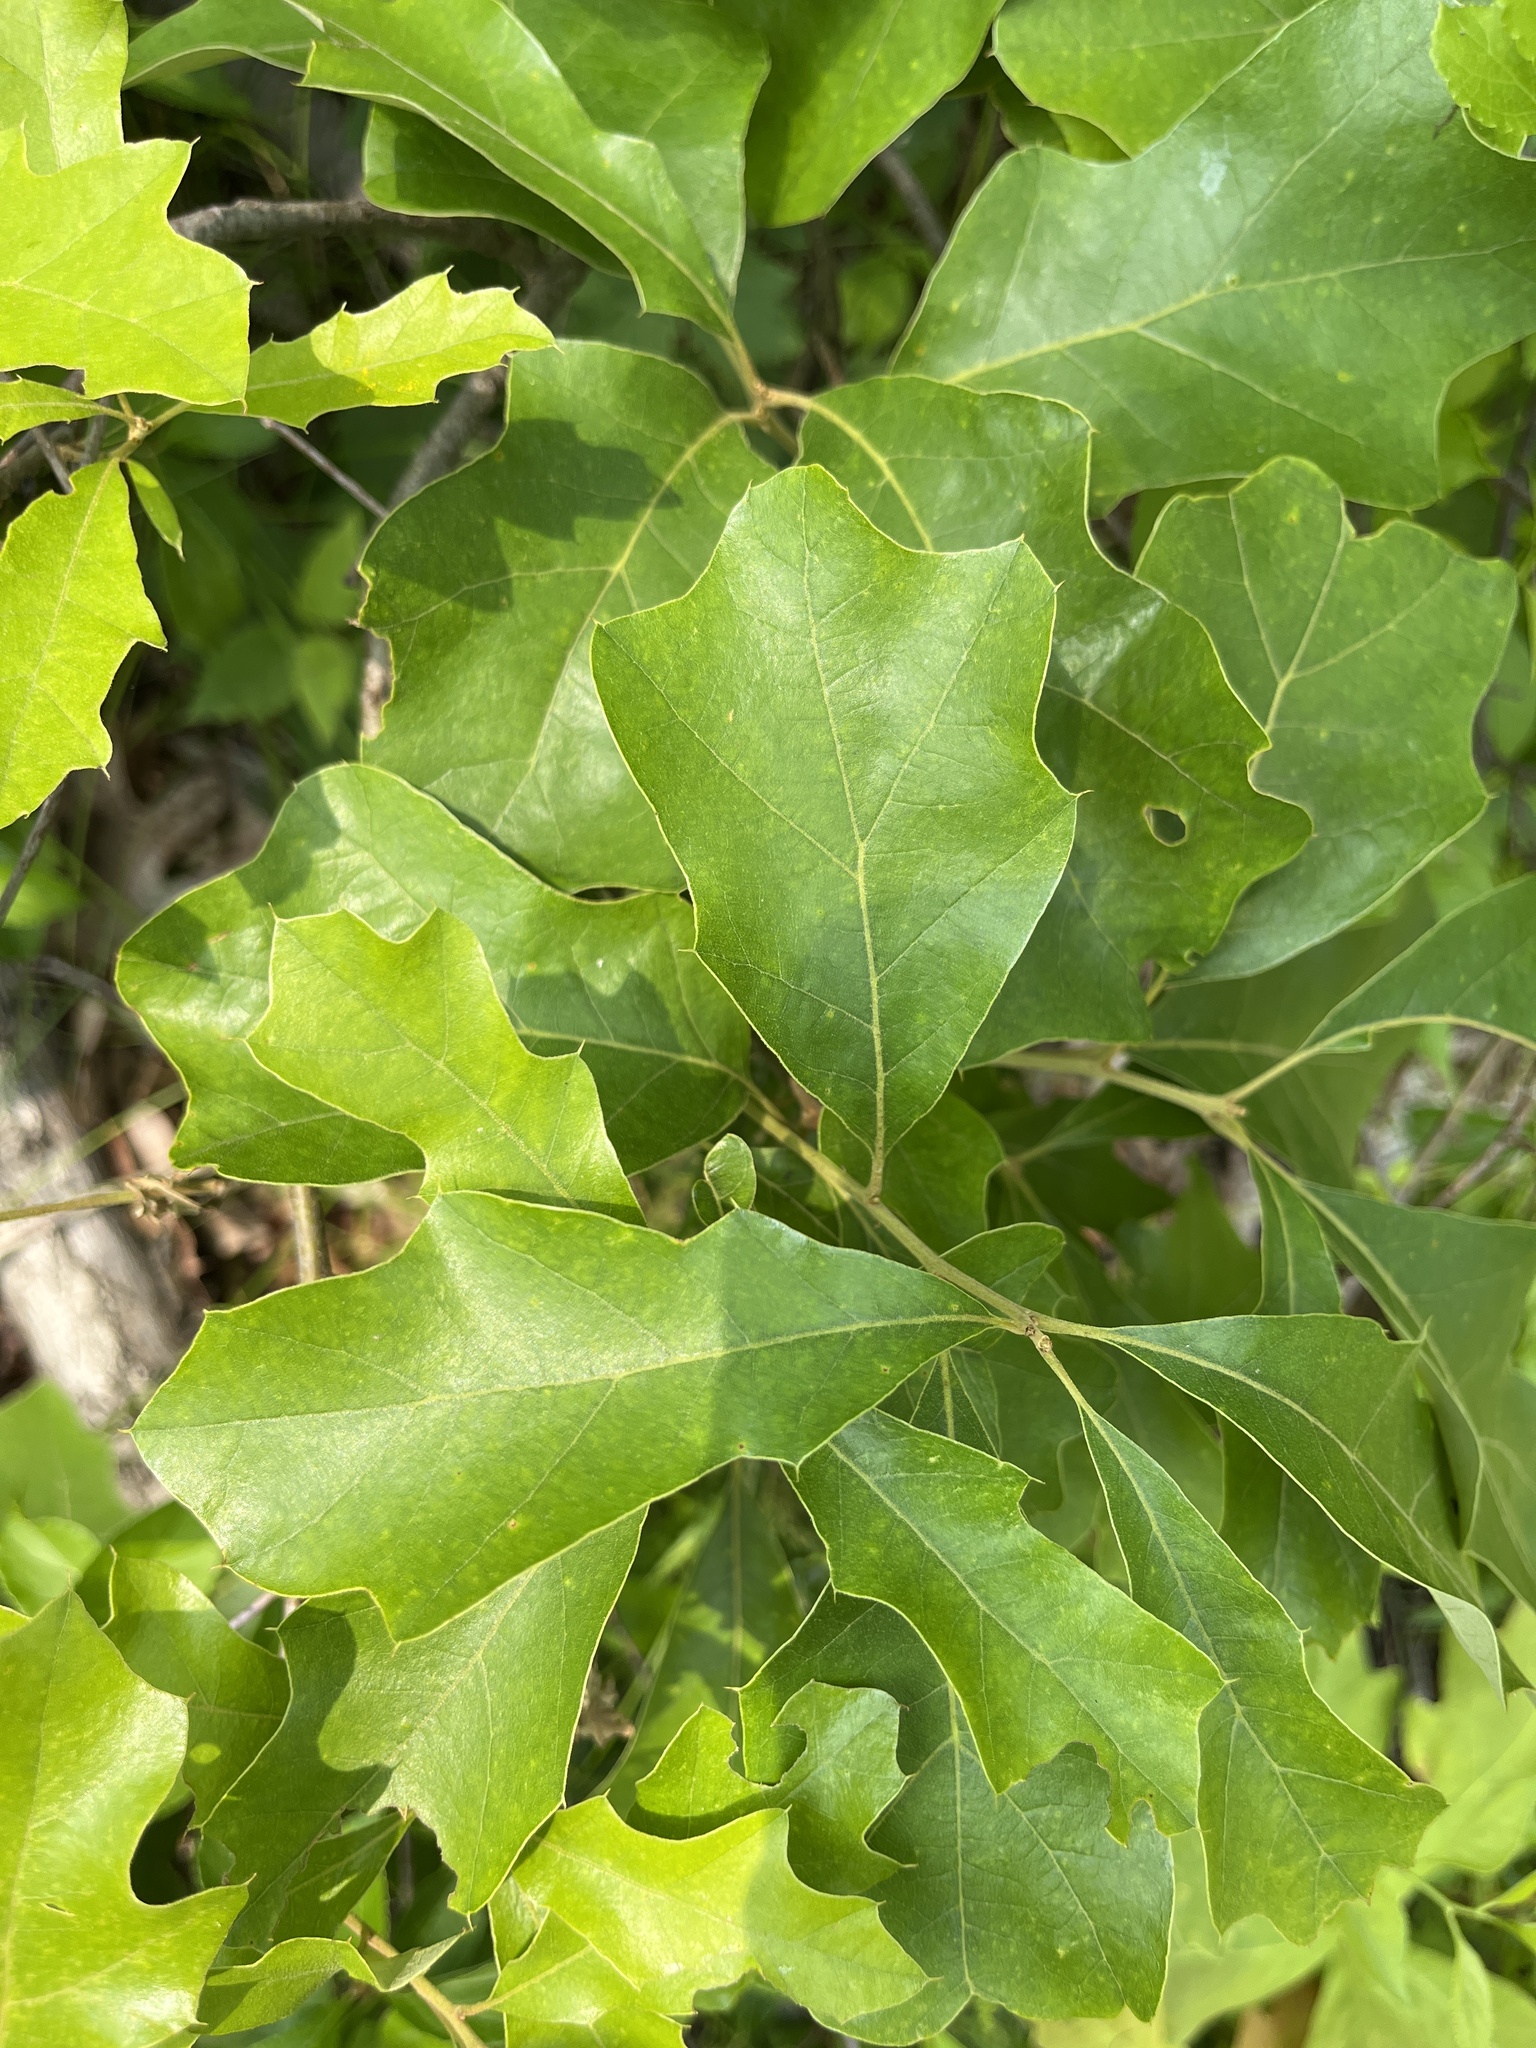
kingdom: Plantae
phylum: Tracheophyta
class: Magnoliopsida
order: Fagales
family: Fagaceae
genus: Quercus
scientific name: Quercus ilicifolia
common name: Bear oak
